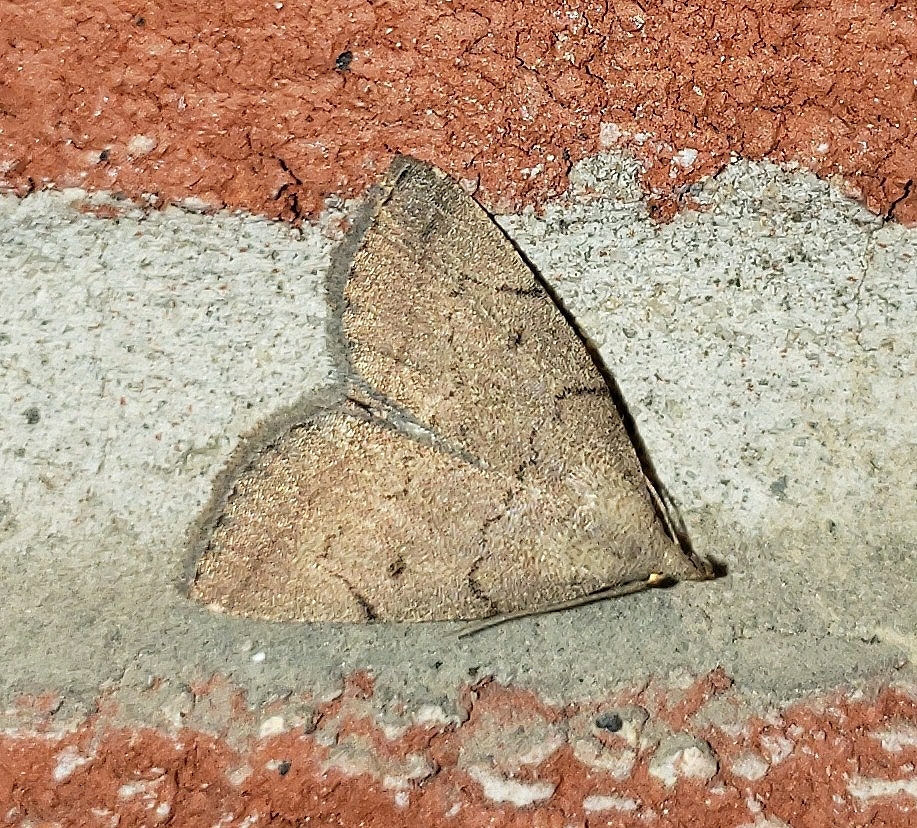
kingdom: Animalia
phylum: Arthropoda
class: Insecta
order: Lepidoptera
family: Erebidae
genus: Zanclognatha
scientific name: Zanclognatha protumnusalis
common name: Complex fan-foot
